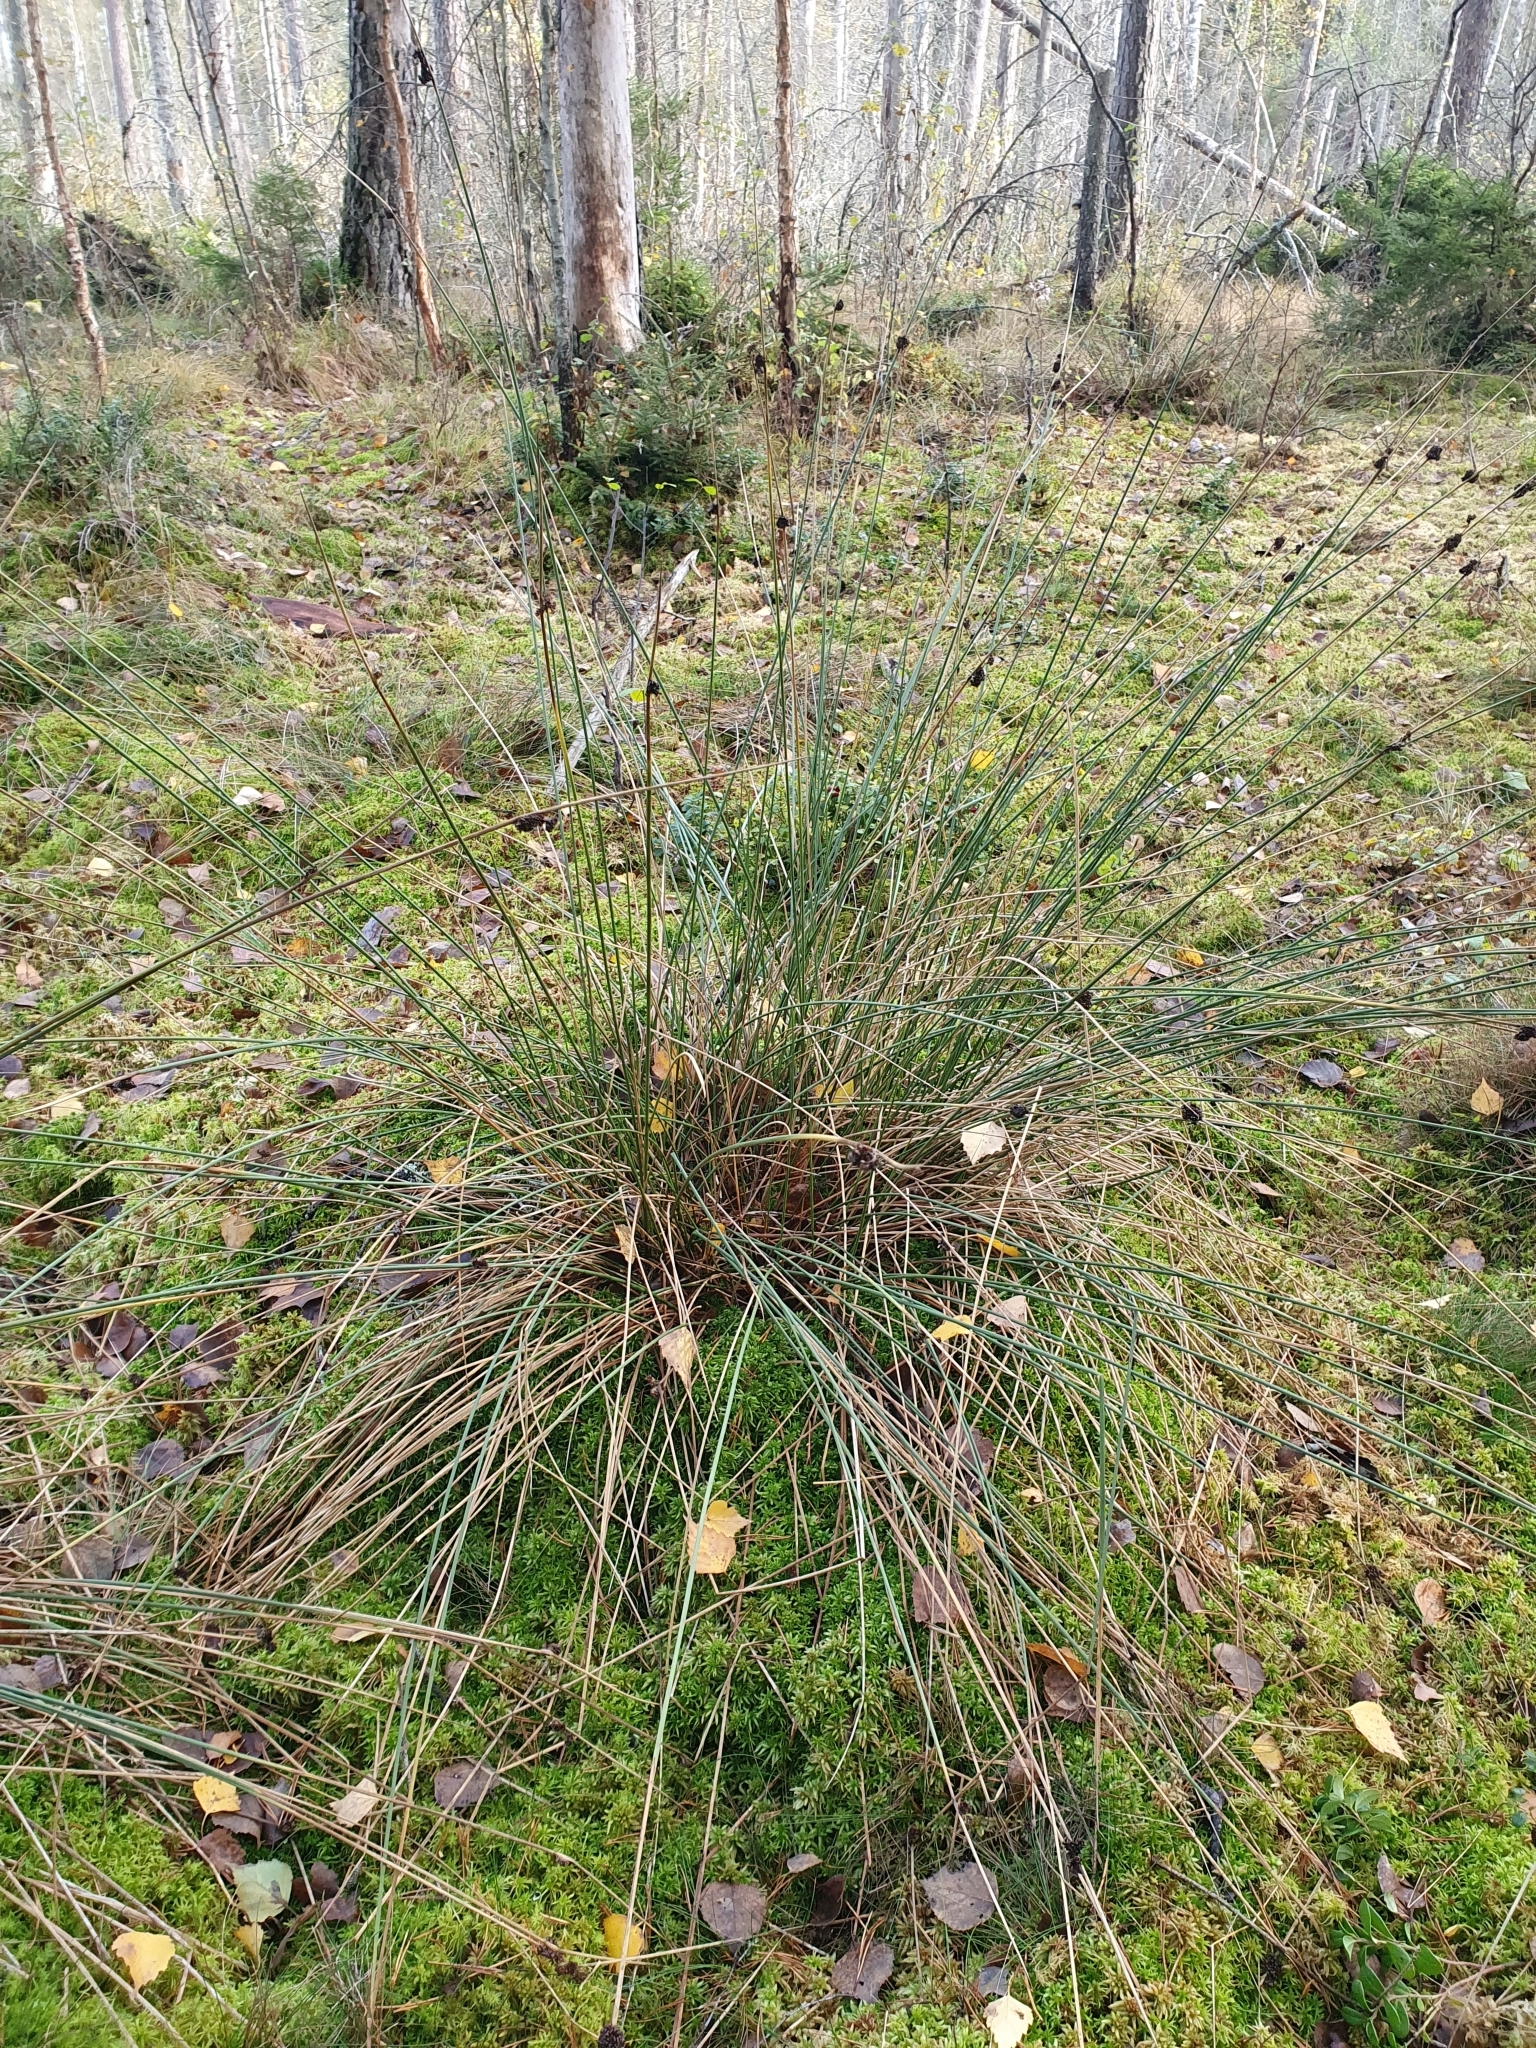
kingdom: Plantae
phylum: Tracheophyta
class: Liliopsida
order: Poales
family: Juncaceae
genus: Juncus
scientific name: Juncus effusus
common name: Soft rush
